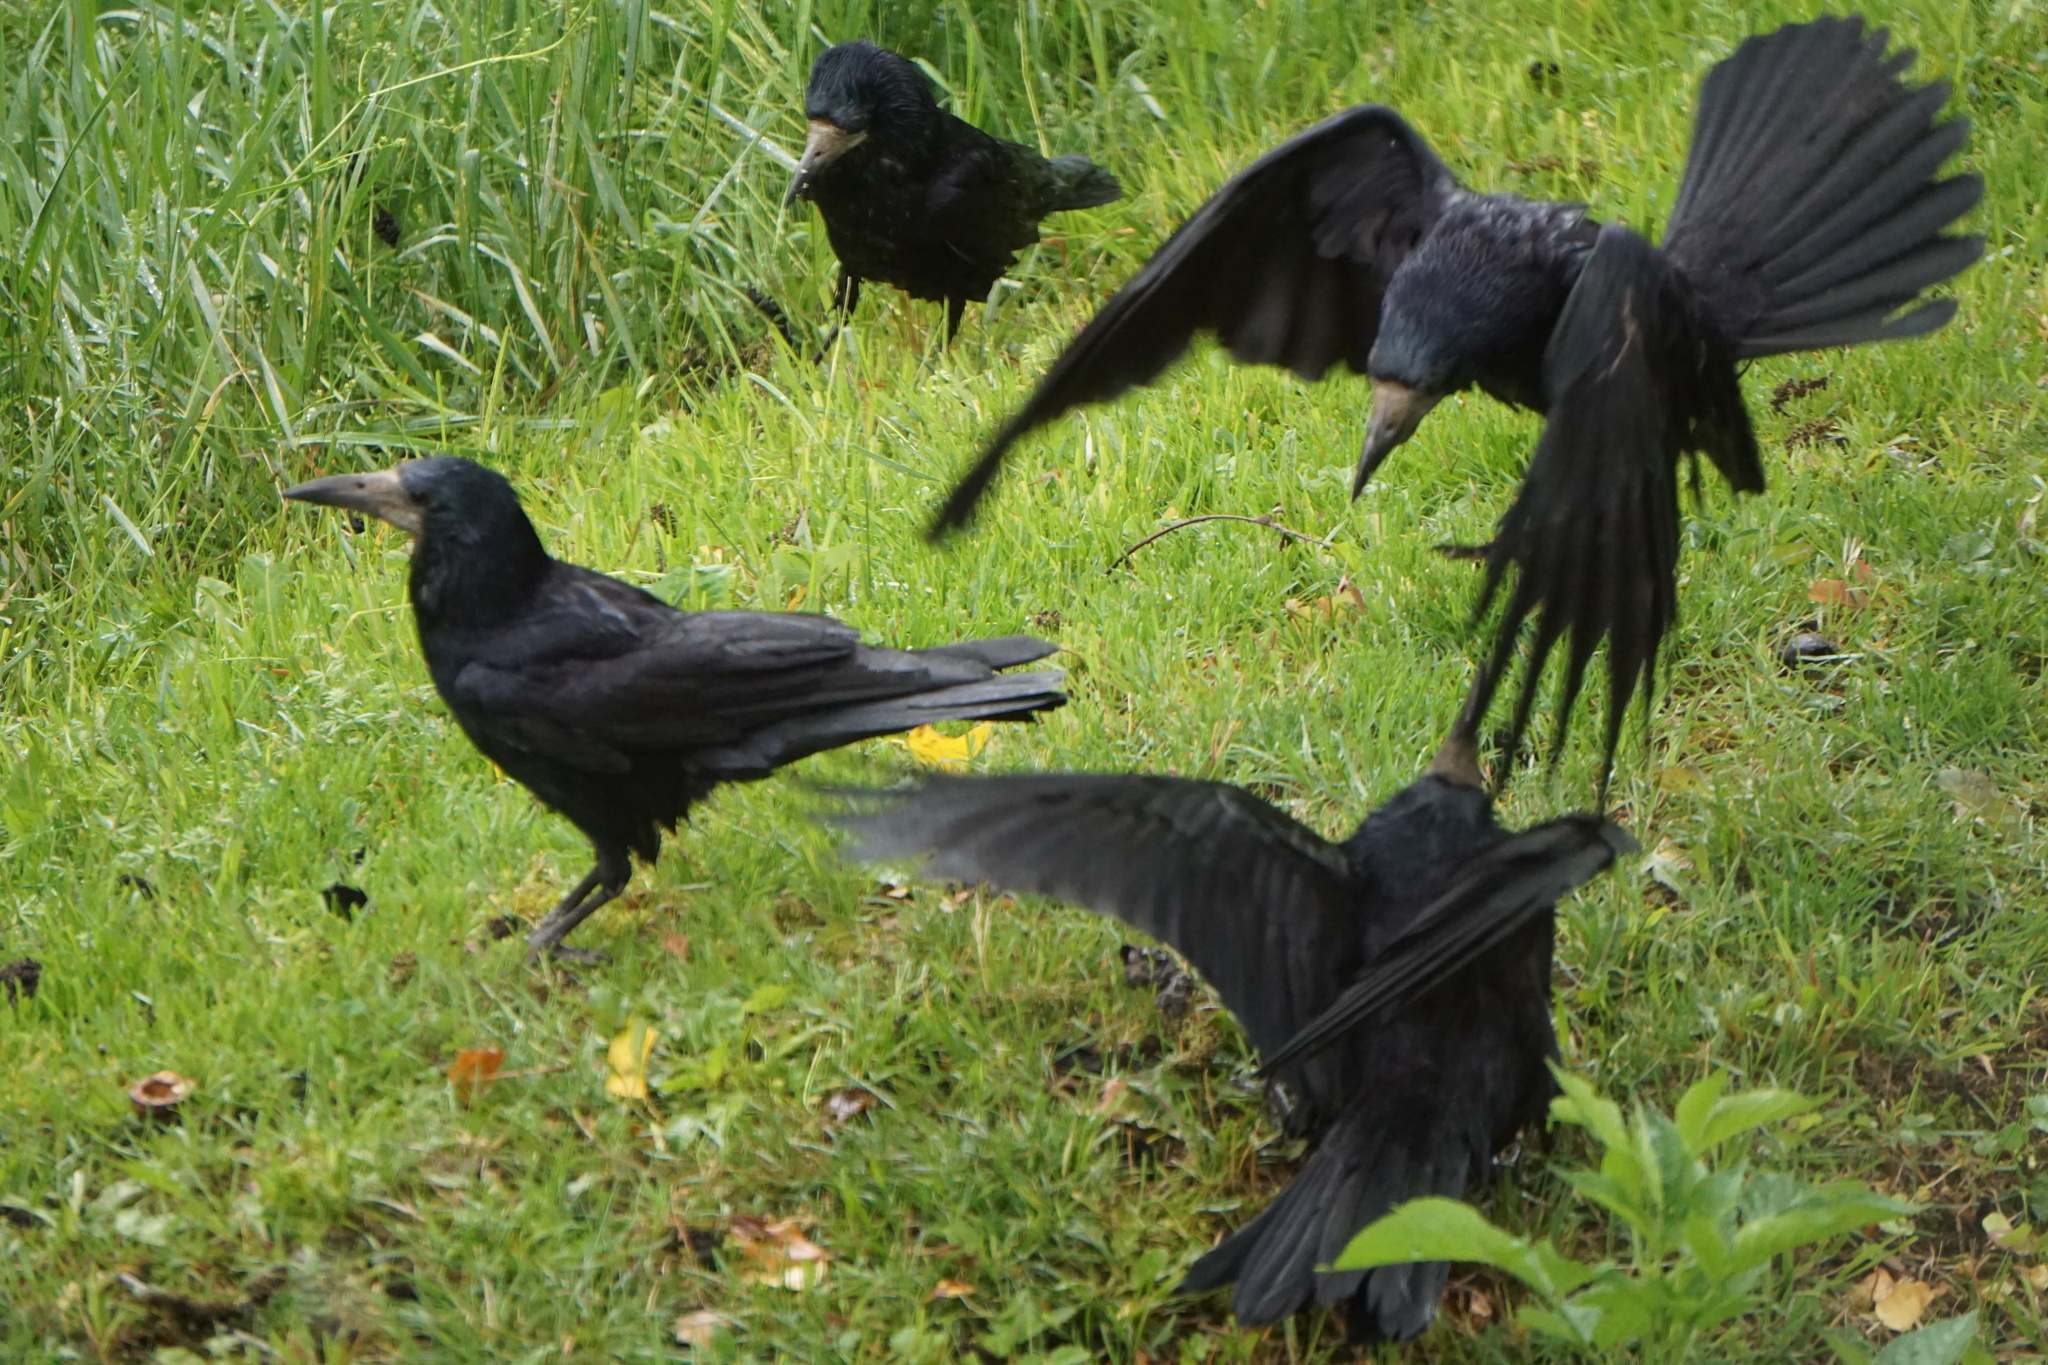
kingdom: Animalia
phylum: Chordata
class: Aves
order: Passeriformes
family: Corvidae
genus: Corvus
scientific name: Corvus frugilegus
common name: Rook
